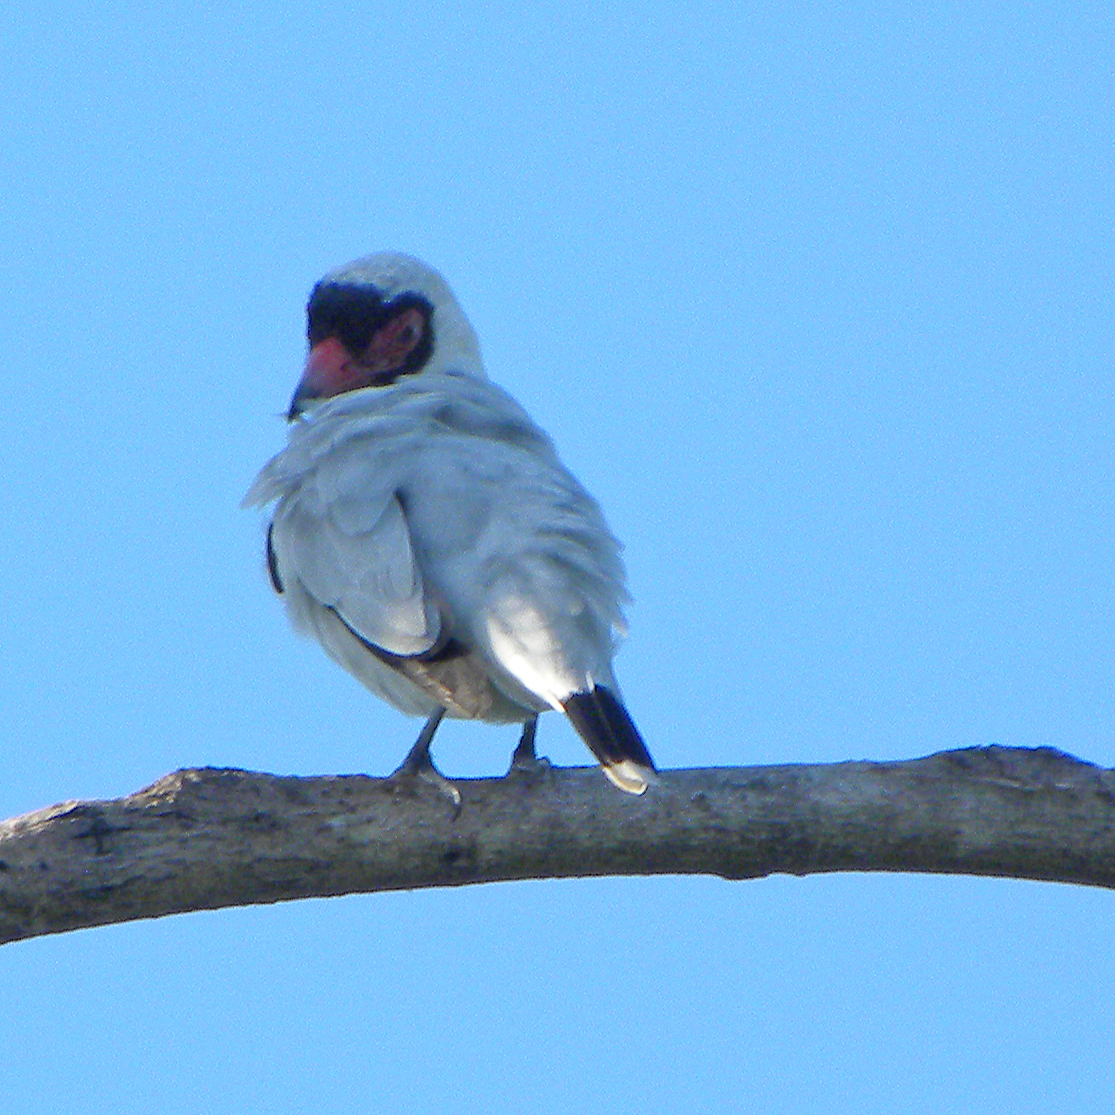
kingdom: Animalia
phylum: Chordata
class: Aves
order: Passeriformes
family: Cotingidae
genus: Tityra
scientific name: Tityra semifasciata
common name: Masked tityra
